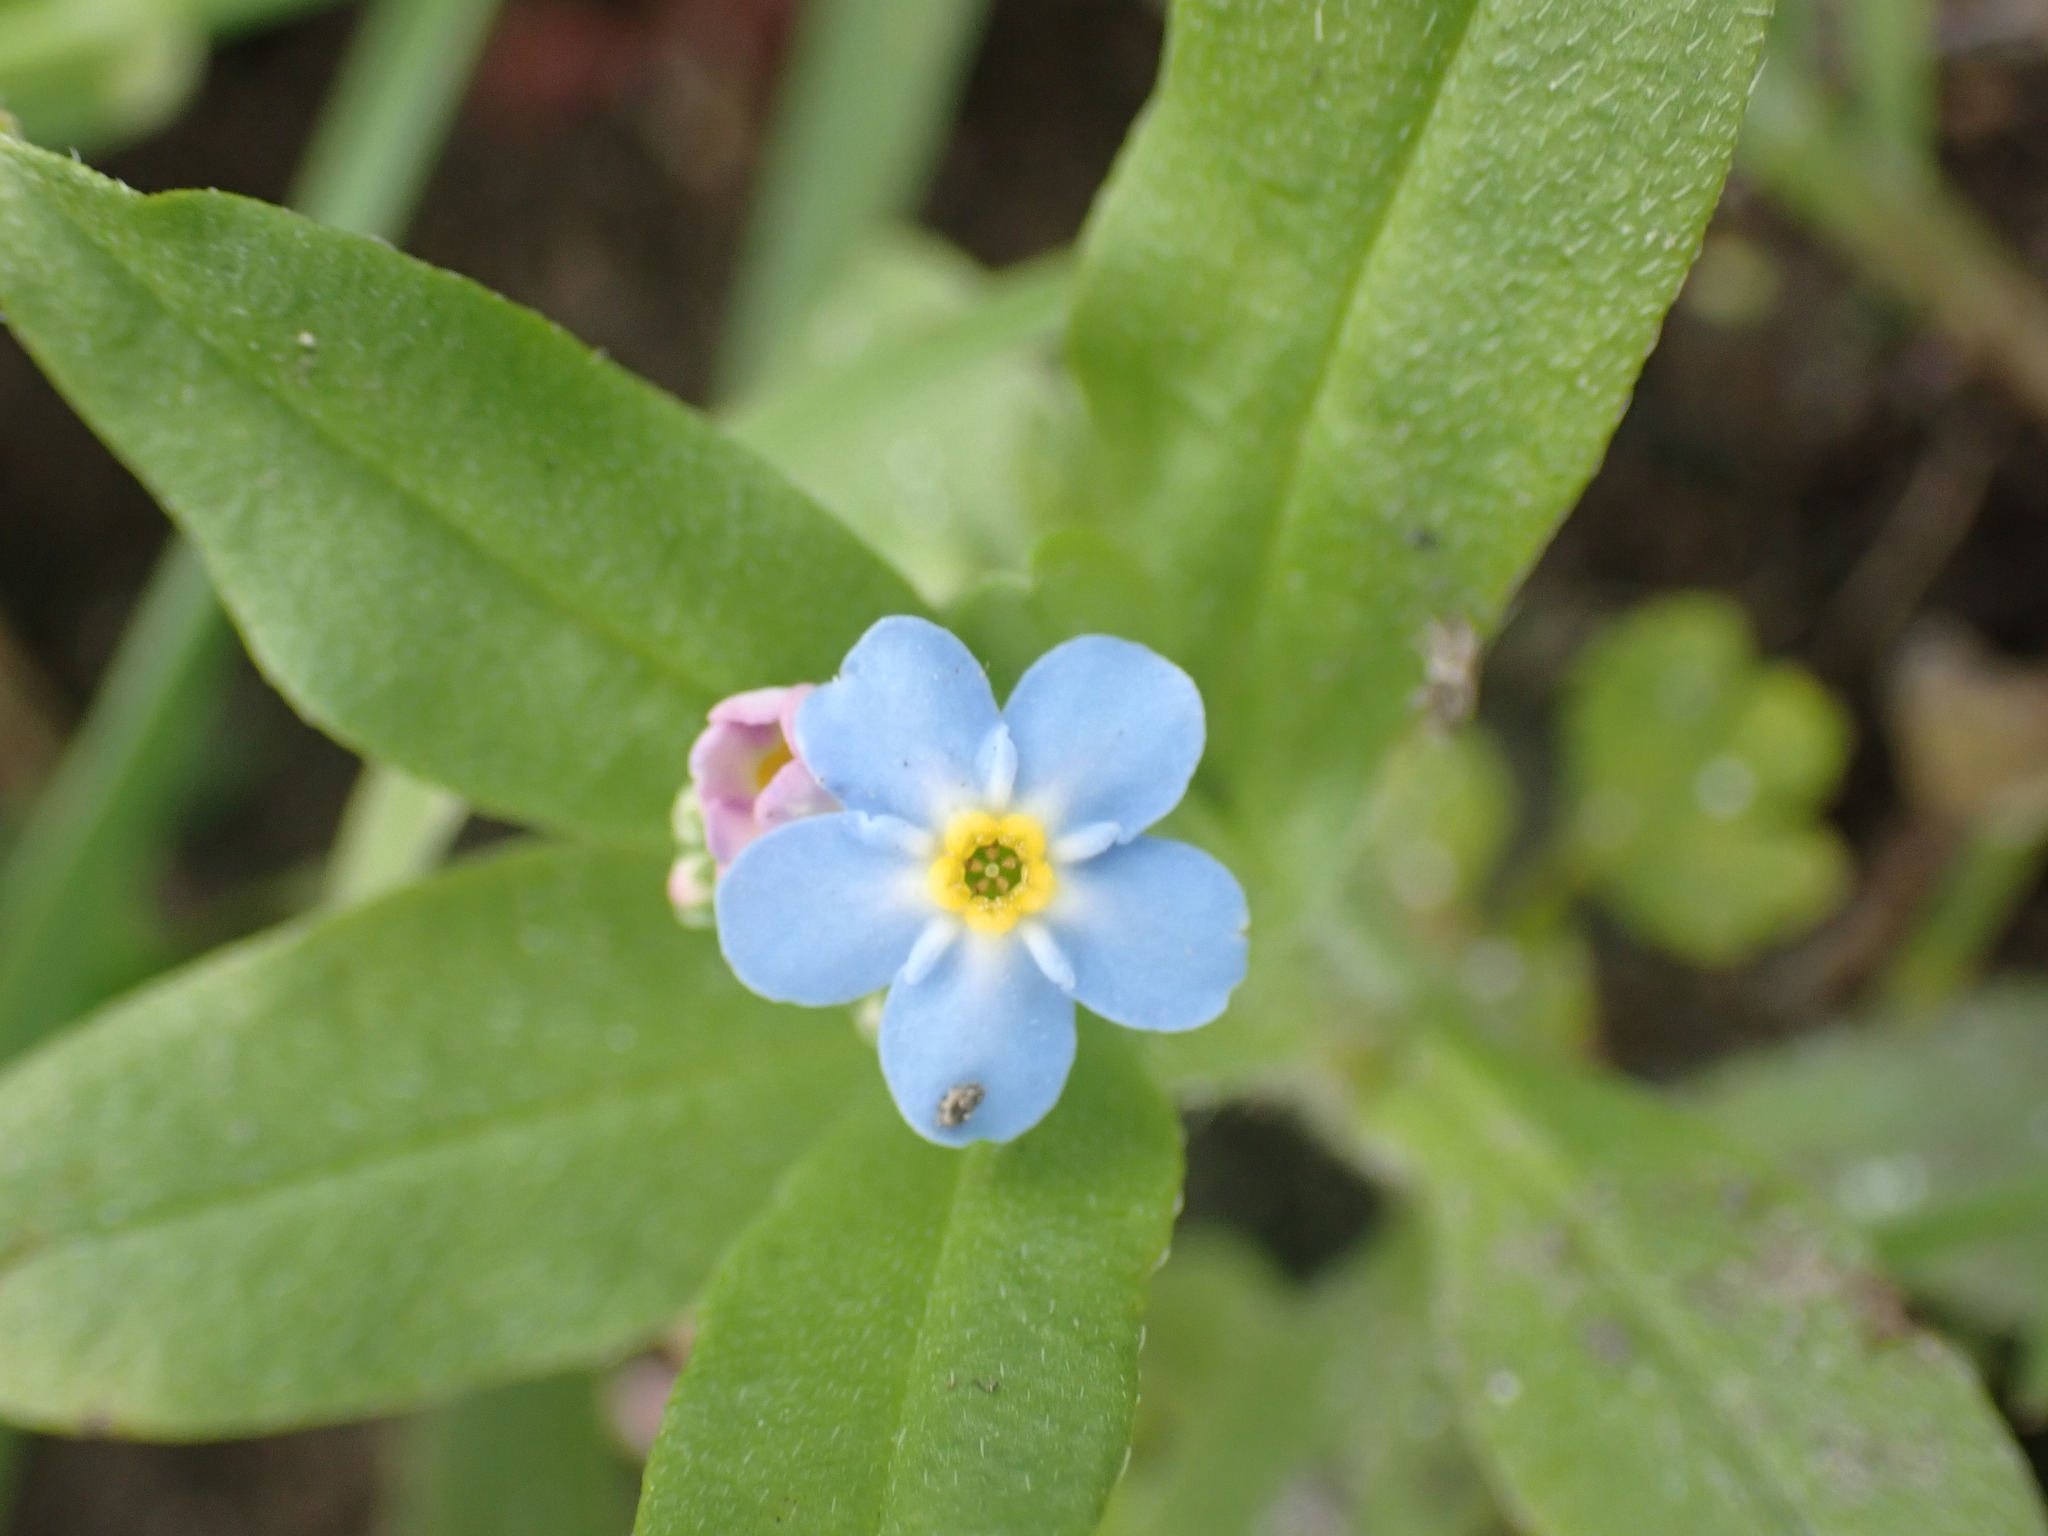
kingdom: Plantae
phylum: Tracheophyta
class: Magnoliopsida
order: Boraginales
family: Boraginaceae
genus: Myosotis
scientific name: Myosotis scorpioides
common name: Water forget-me-not
